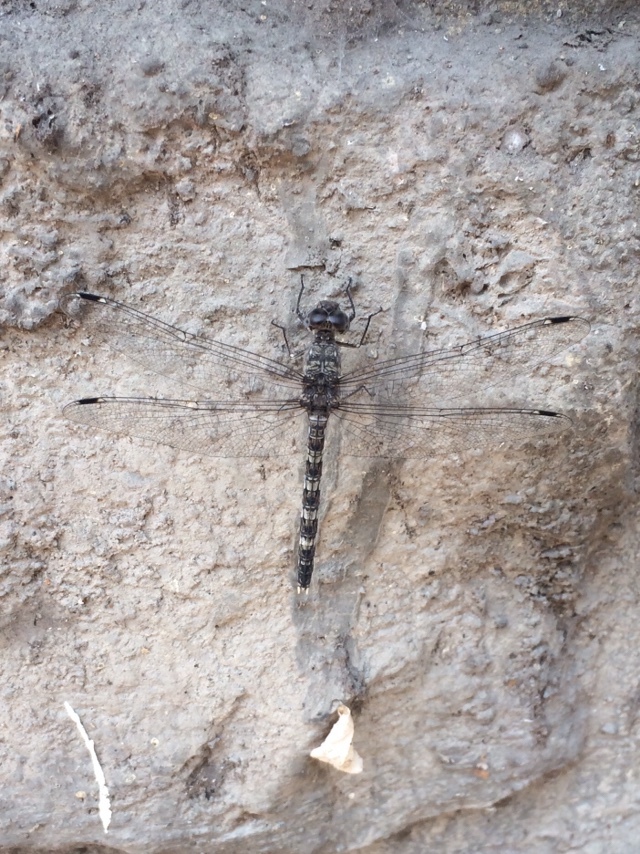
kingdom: Animalia
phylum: Arthropoda
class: Insecta
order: Odonata
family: Libellulidae
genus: Bradinopyga
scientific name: Bradinopyga geminata
